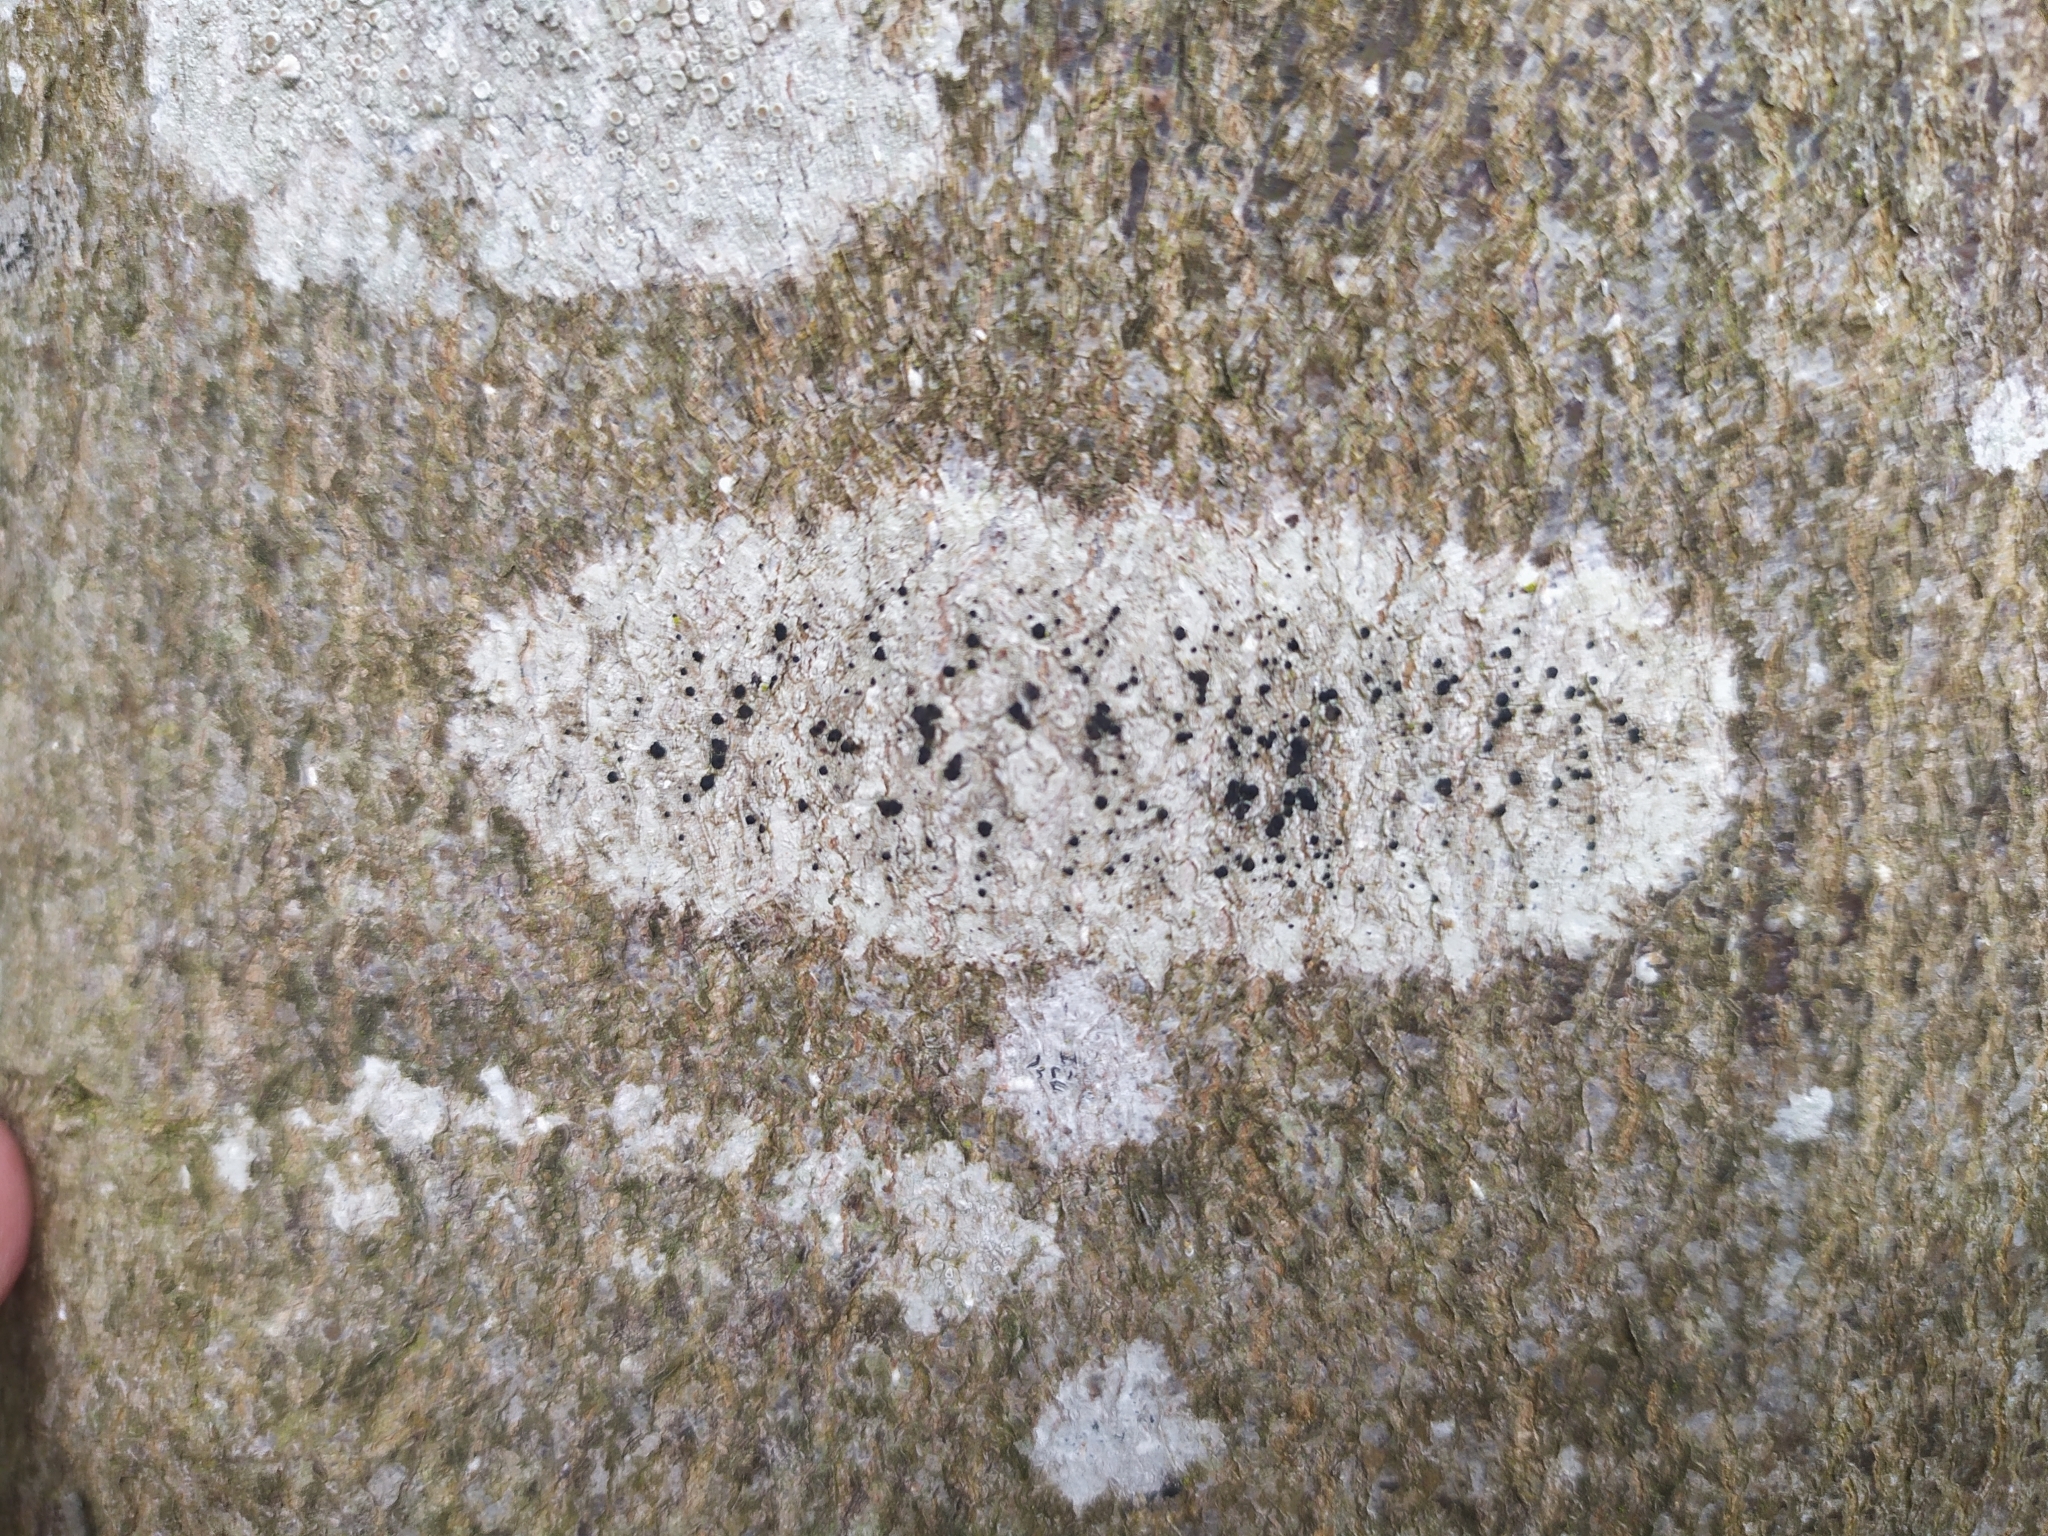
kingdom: Fungi
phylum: Ascomycota
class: Lecanoromycetes
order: Lecanorales
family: Lecanoraceae
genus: Lecidella
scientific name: Lecidella elaeochroma
